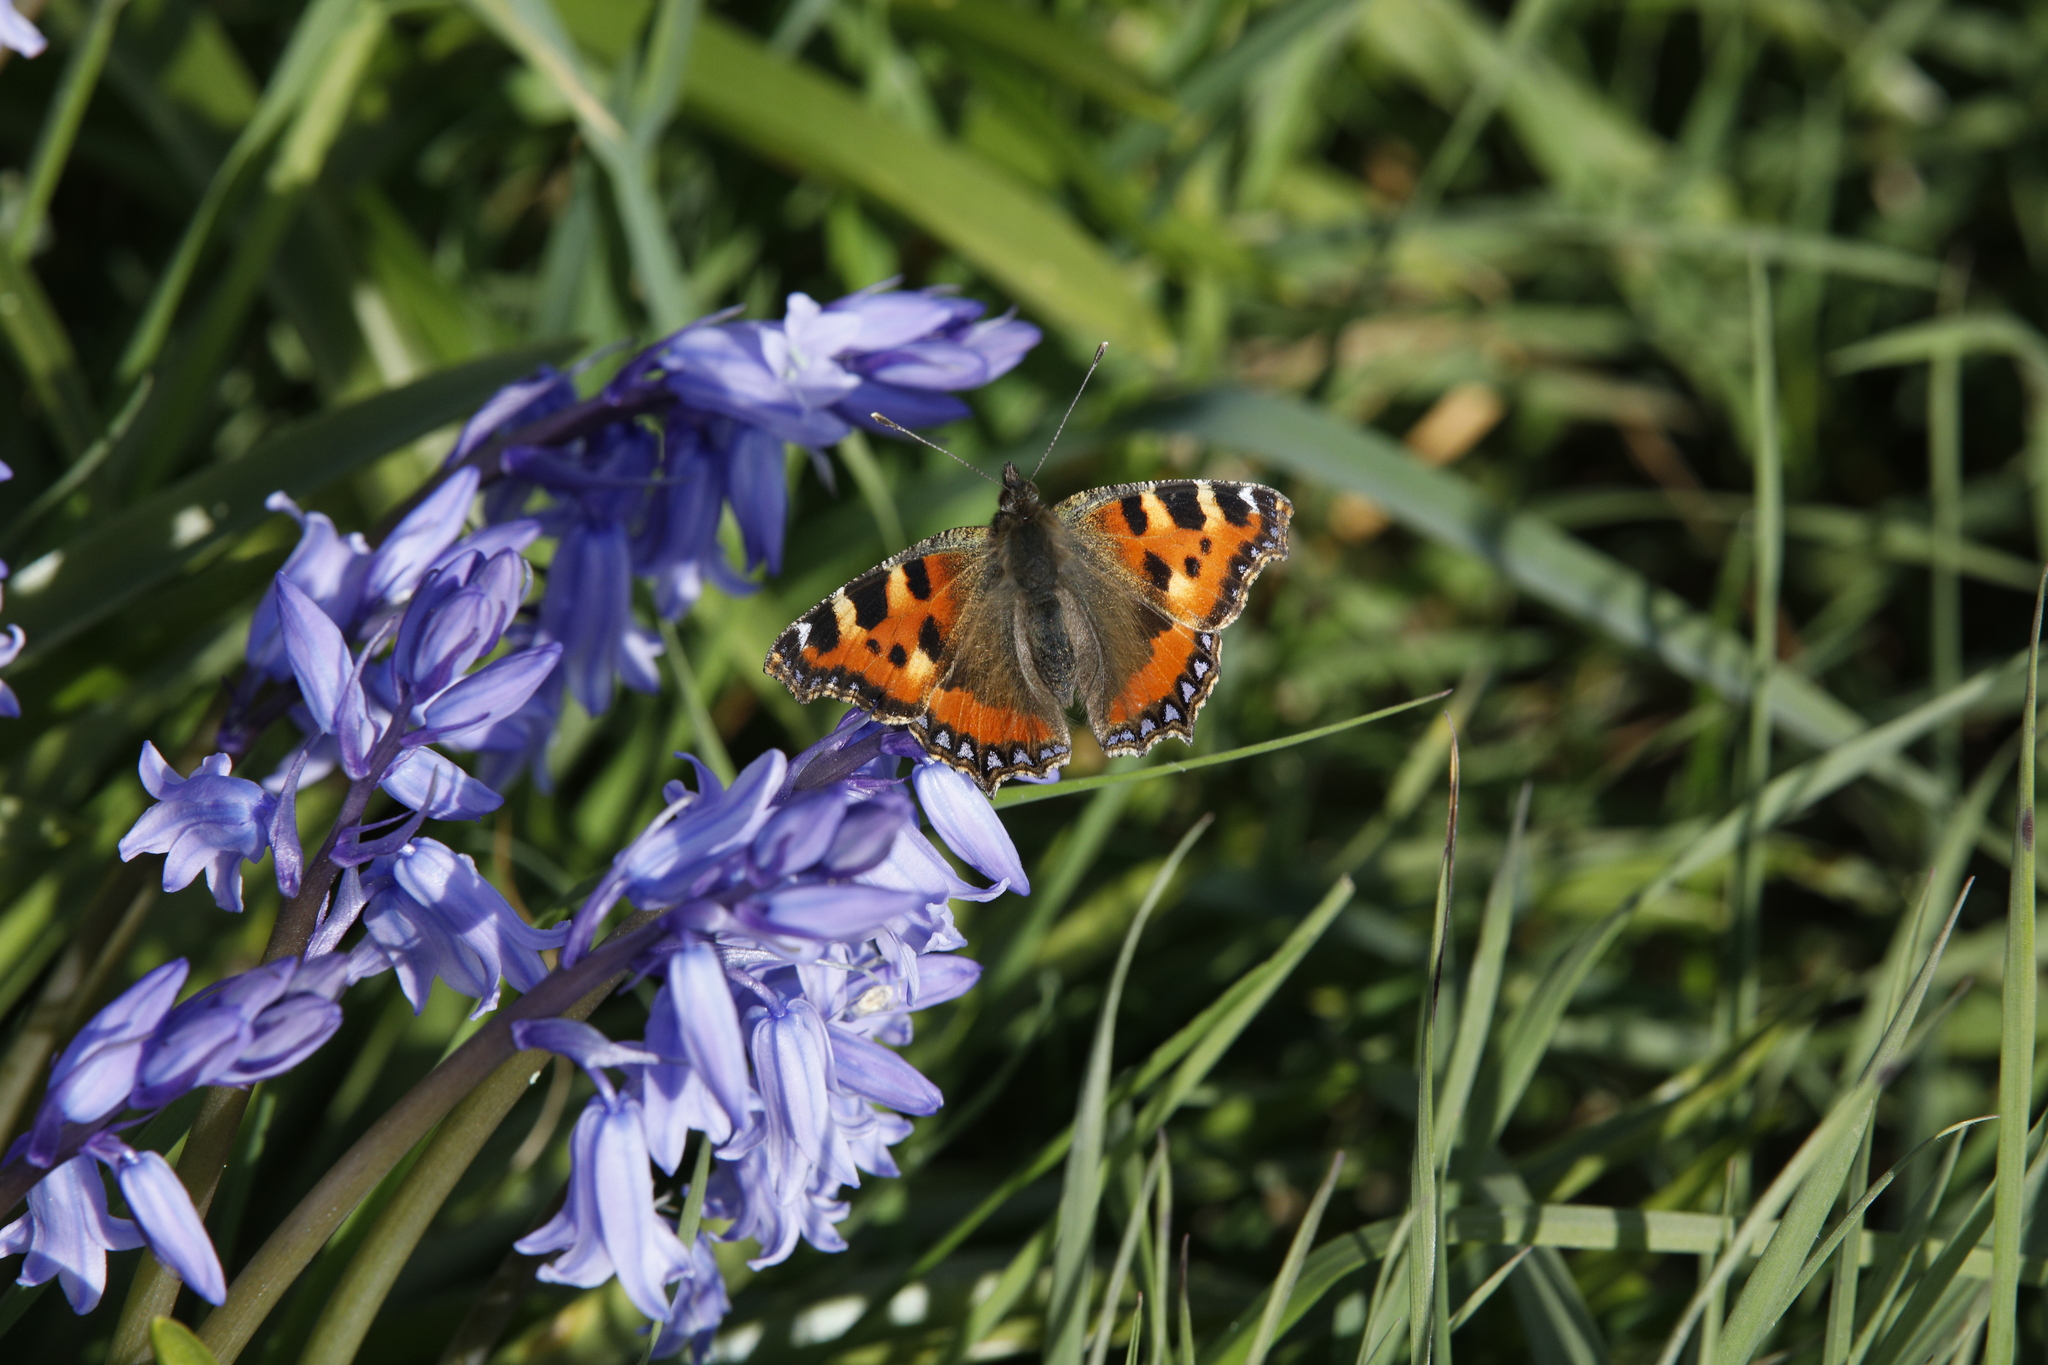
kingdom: Animalia
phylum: Arthropoda
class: Insecta
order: Lepidoptera
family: Nymphalidae
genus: Aglais
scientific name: Aglais urticae
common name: Small tortoiseshell
